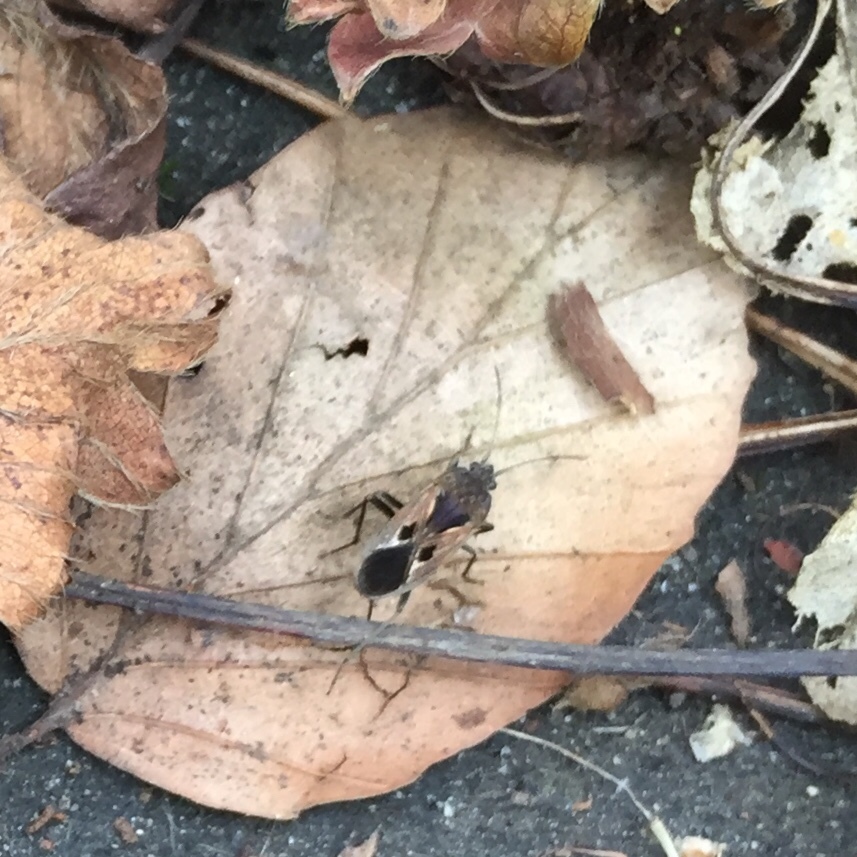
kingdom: Animalia
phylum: Arthropoda
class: Insecta
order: Hemiptera
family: Rhyparochromidae
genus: Rhyparochromus
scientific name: Rhyparochromus pini
